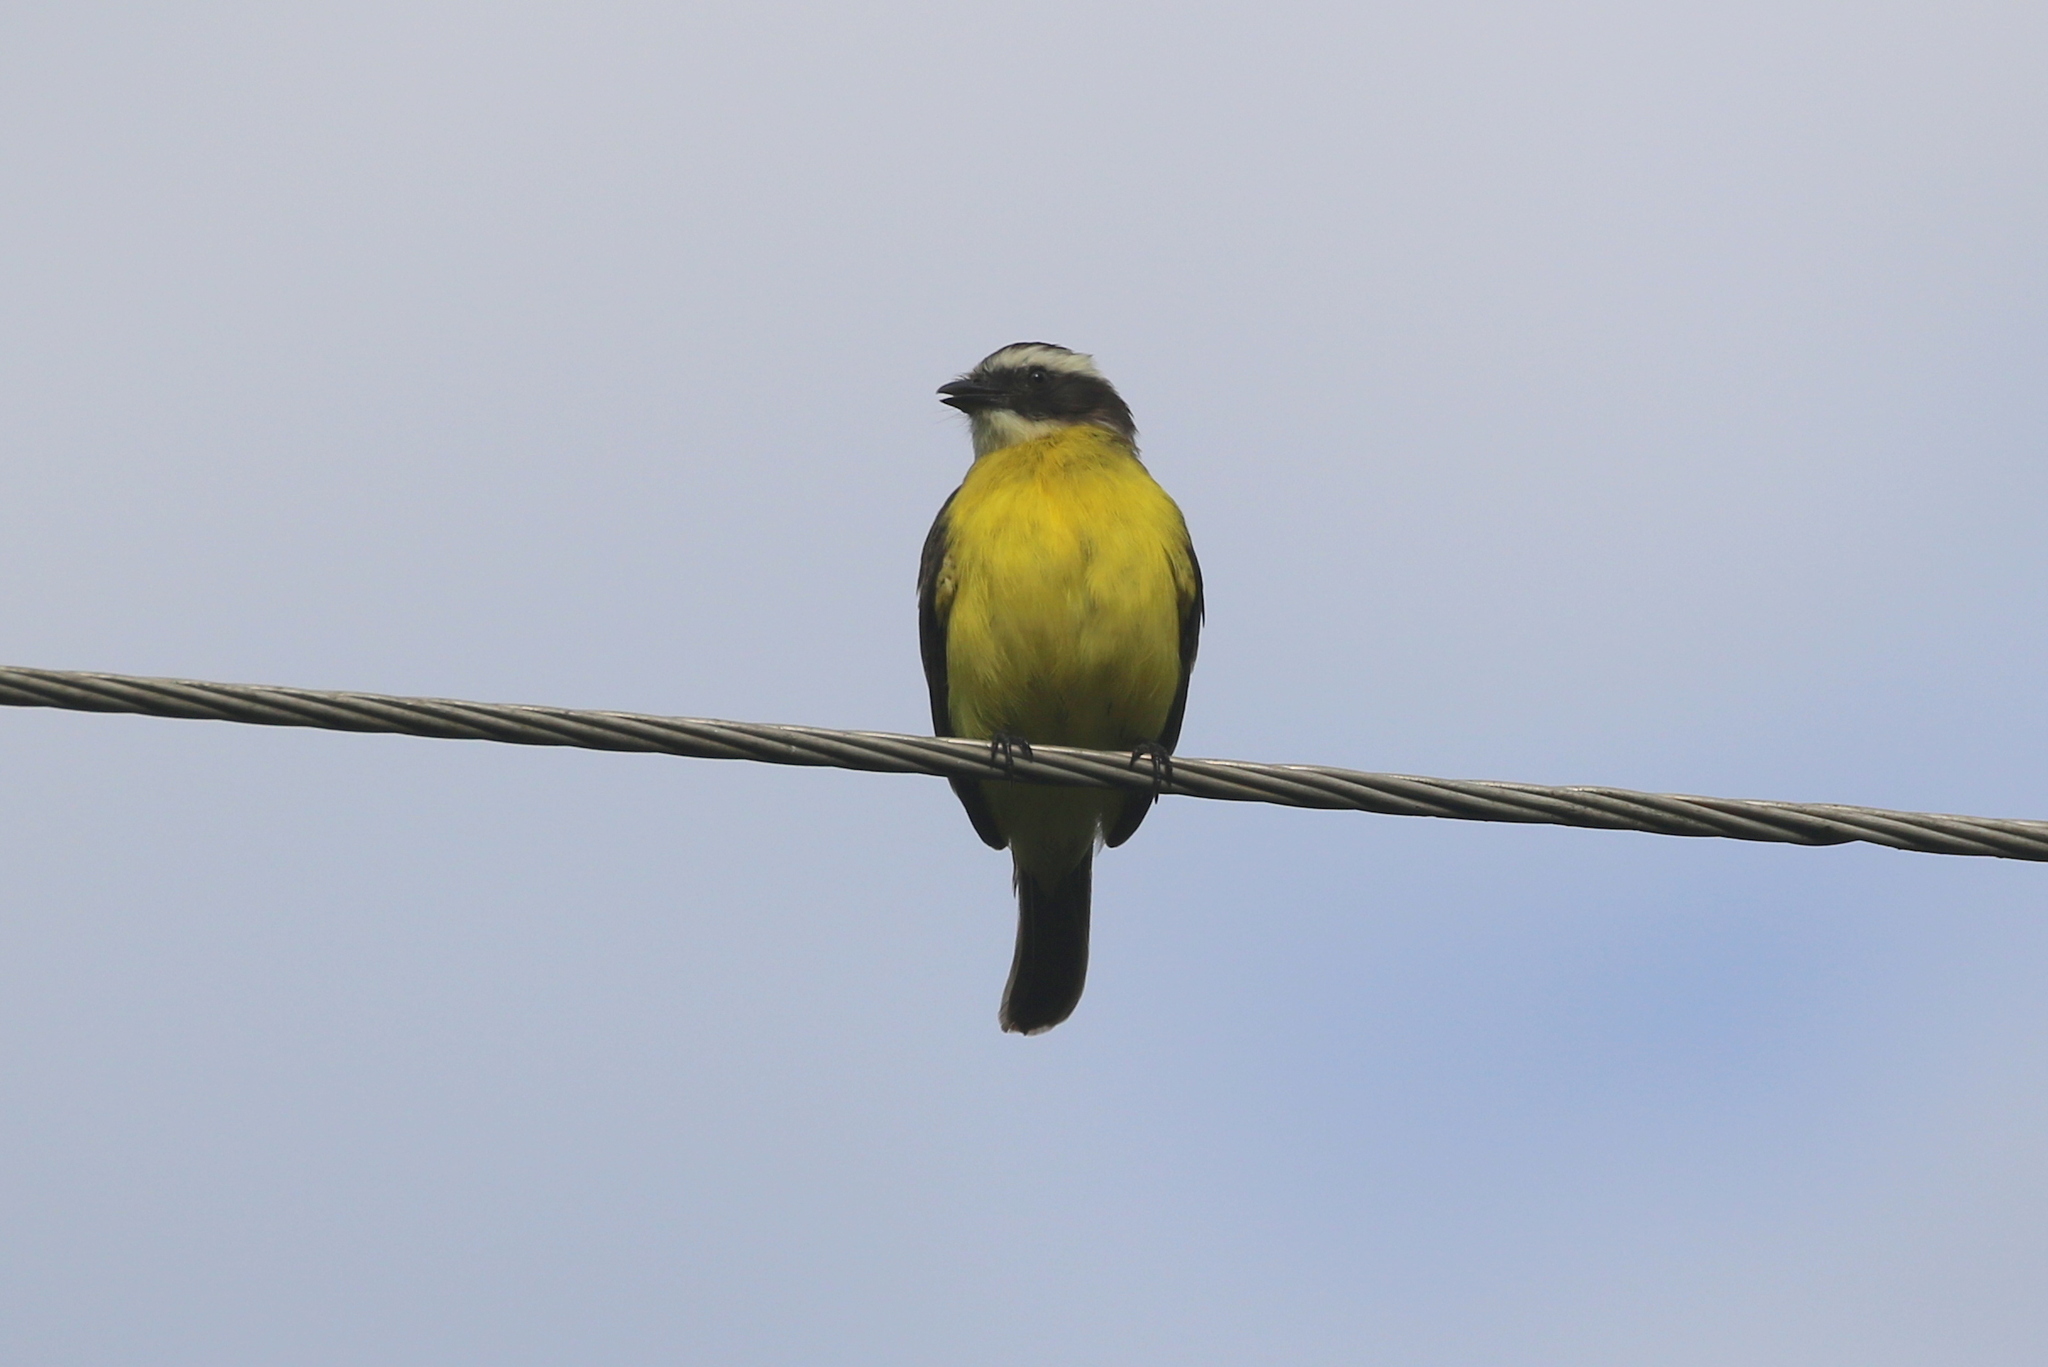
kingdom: Animalia
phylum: Chordata
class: Aves
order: Passeriformes
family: Tyrannidae
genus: Myiozetetes
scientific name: Myiozetetes cayanensis
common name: Rusty-margined flycatcher
